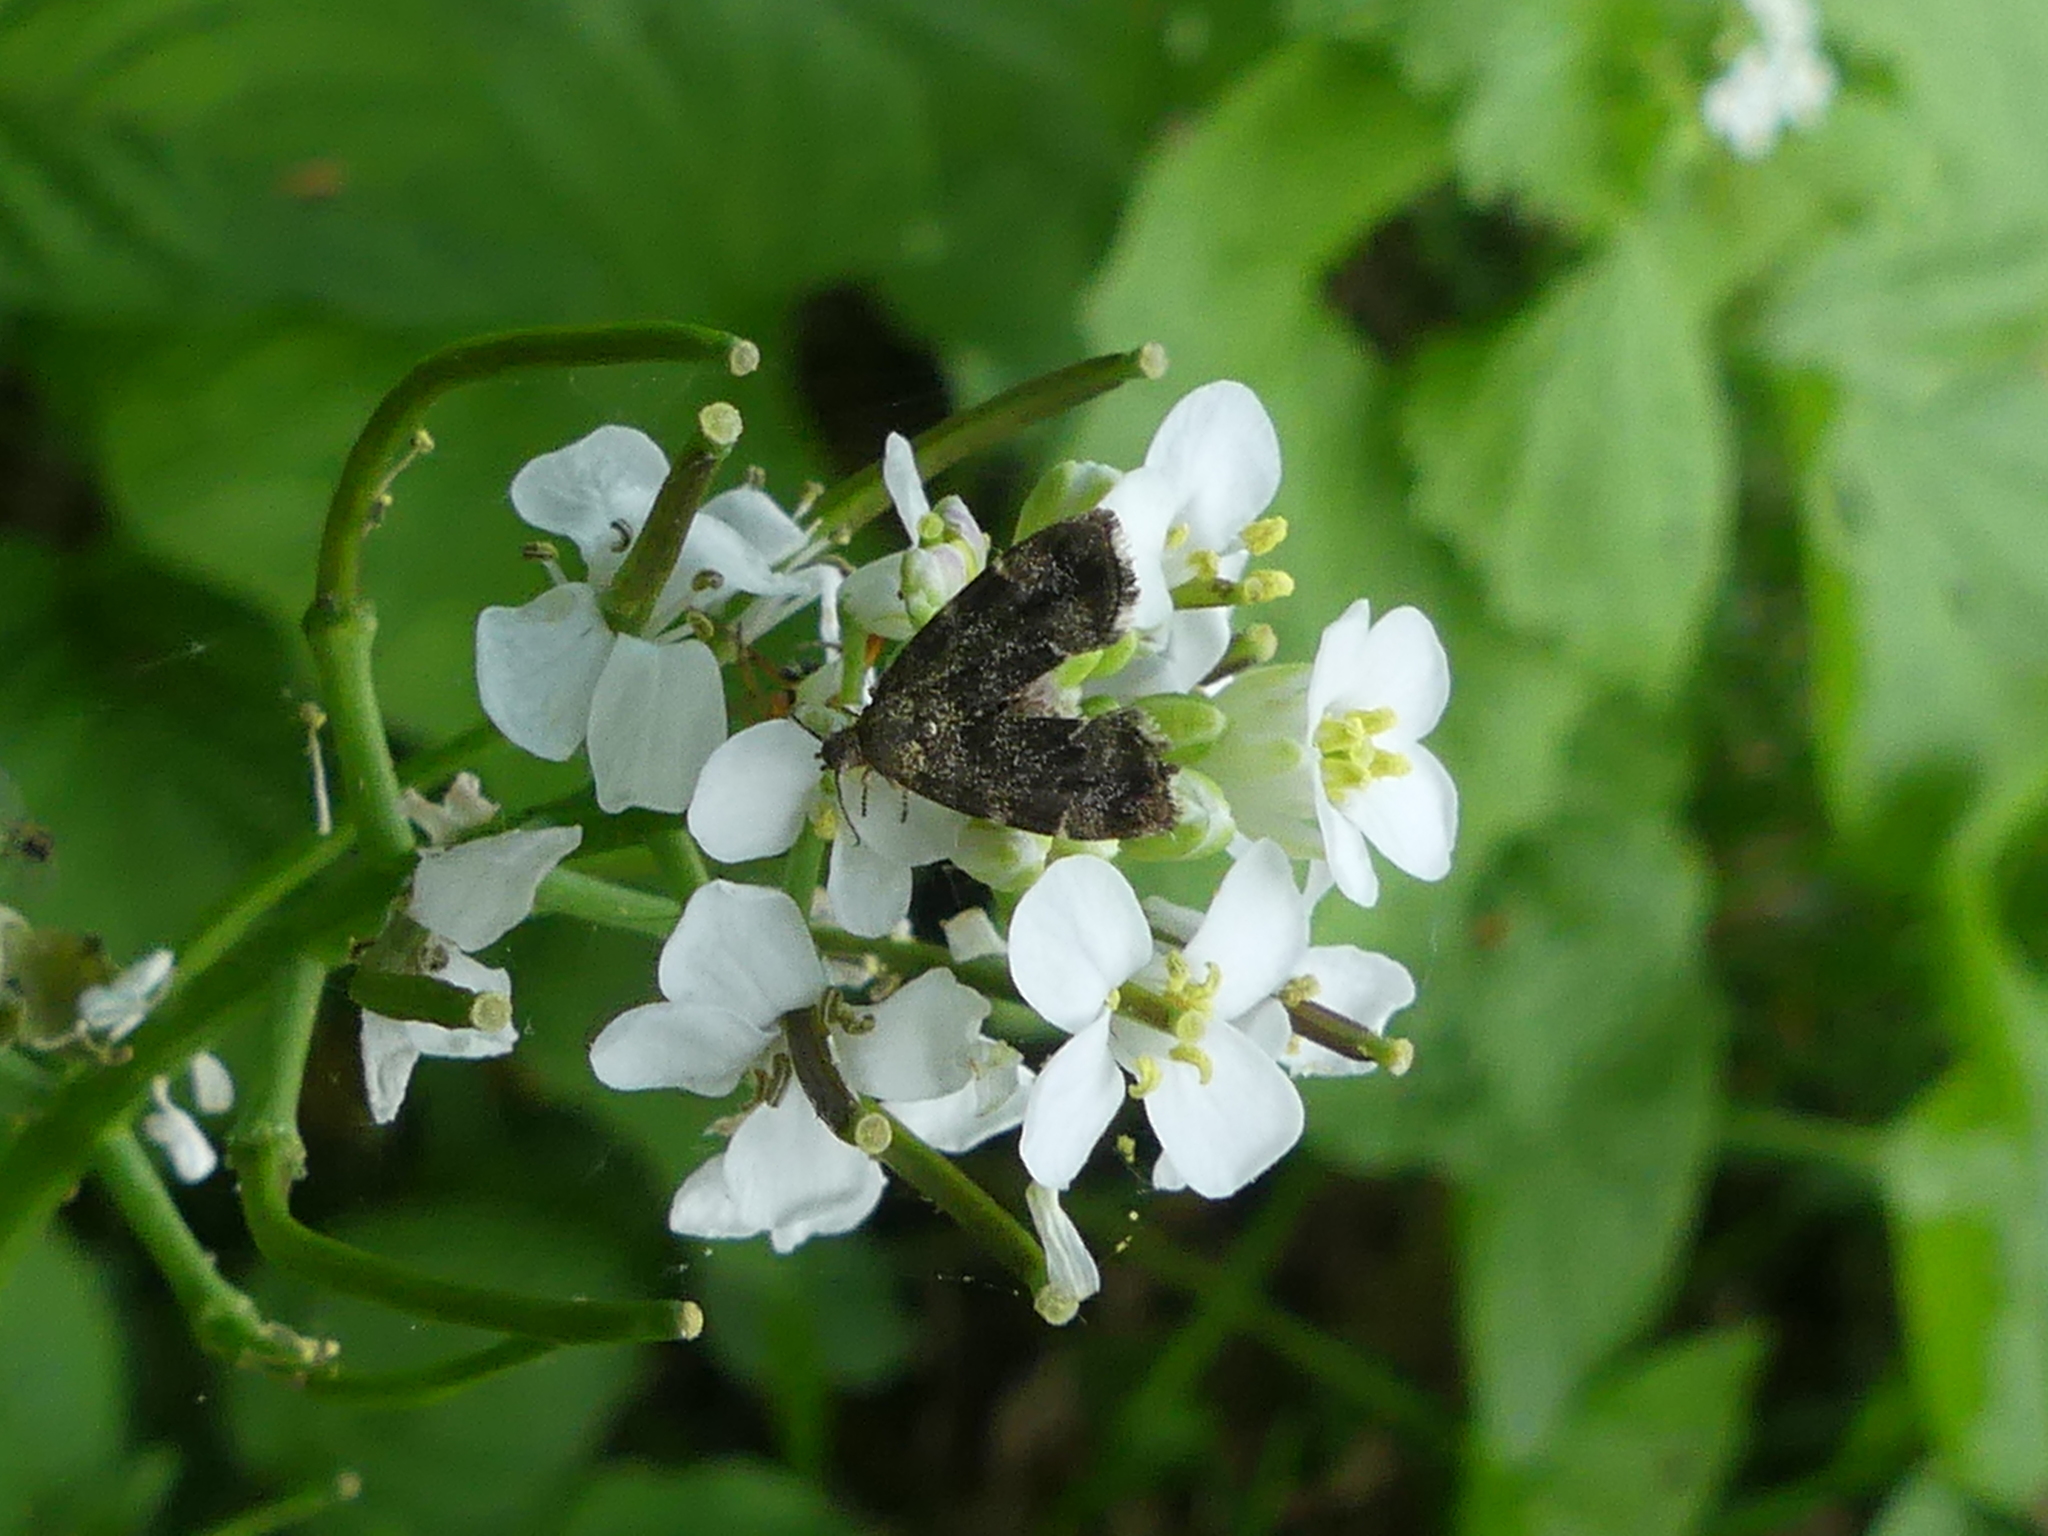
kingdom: Animalia
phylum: Arthropoda
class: Insecta
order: Lepidoptera
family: Choreutidae
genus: Anthophila
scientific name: Anthophila fabriciana
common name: Nettle-tap
